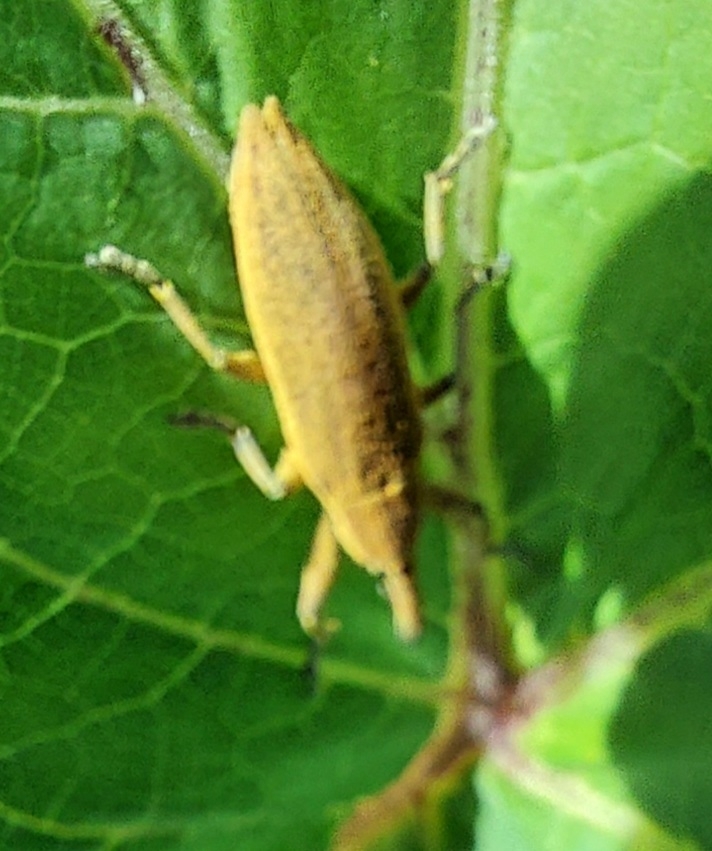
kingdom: Animalia
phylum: Arthropoda
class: Insecta
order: Coleoptera
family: Curculionidae
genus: Lixus
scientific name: Lixus iridis
